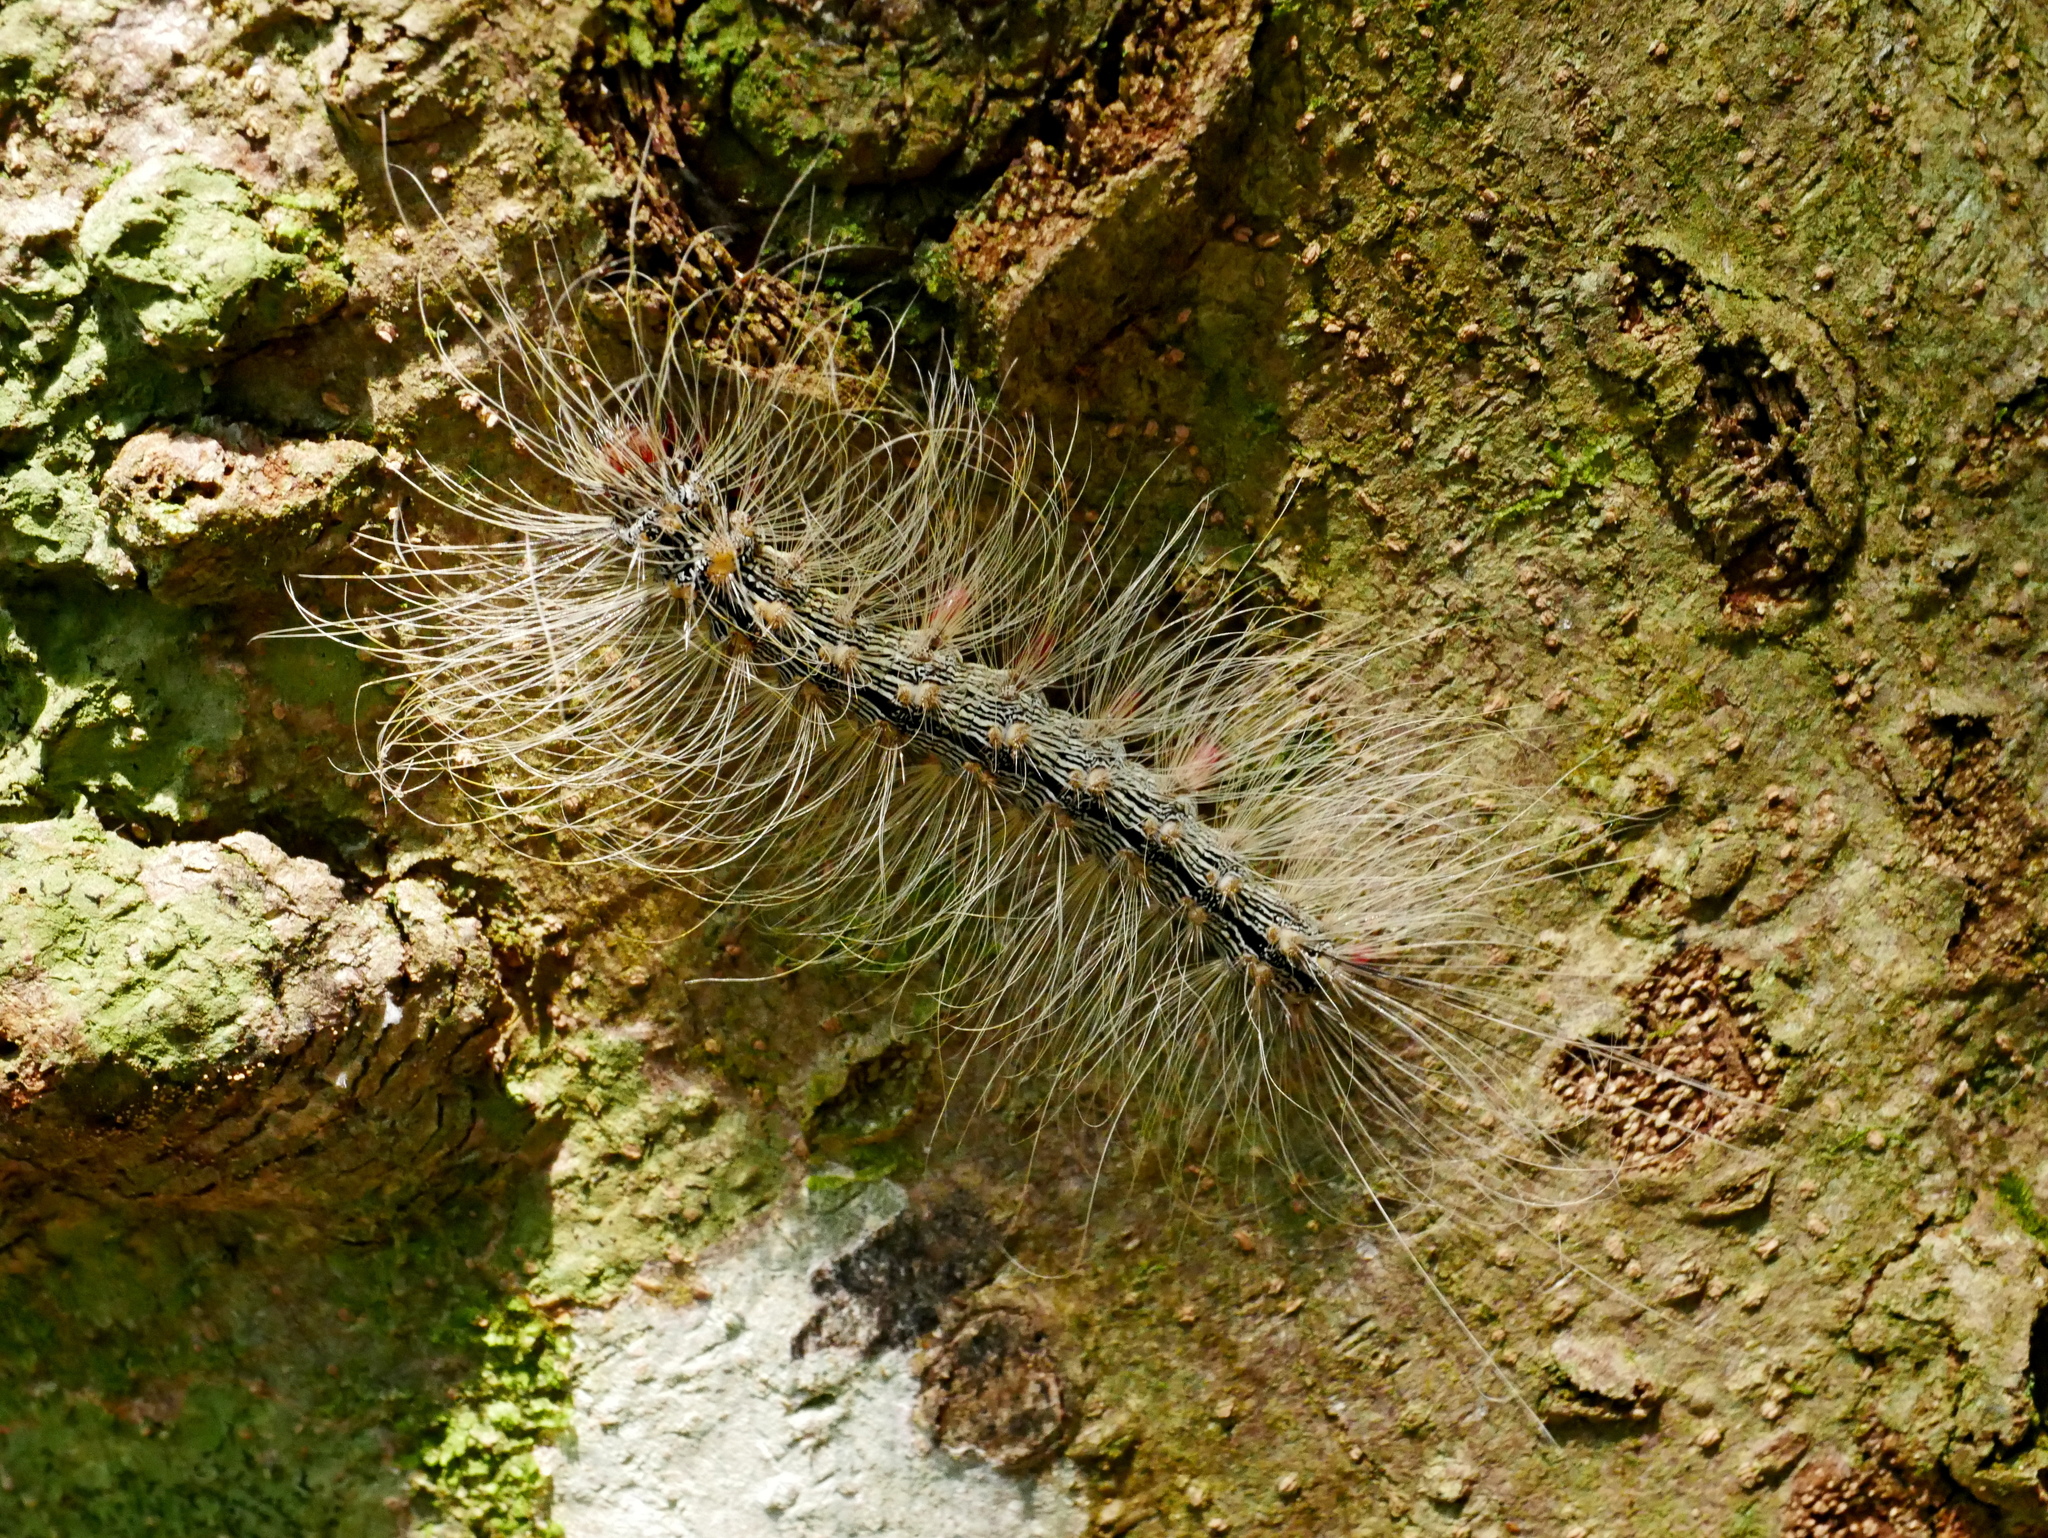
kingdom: Animalia
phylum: Arthropoda
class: Insecta
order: Lepidoptera
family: Erebidae
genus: Chrysaeglia
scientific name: Chrysaeglia magnifica
